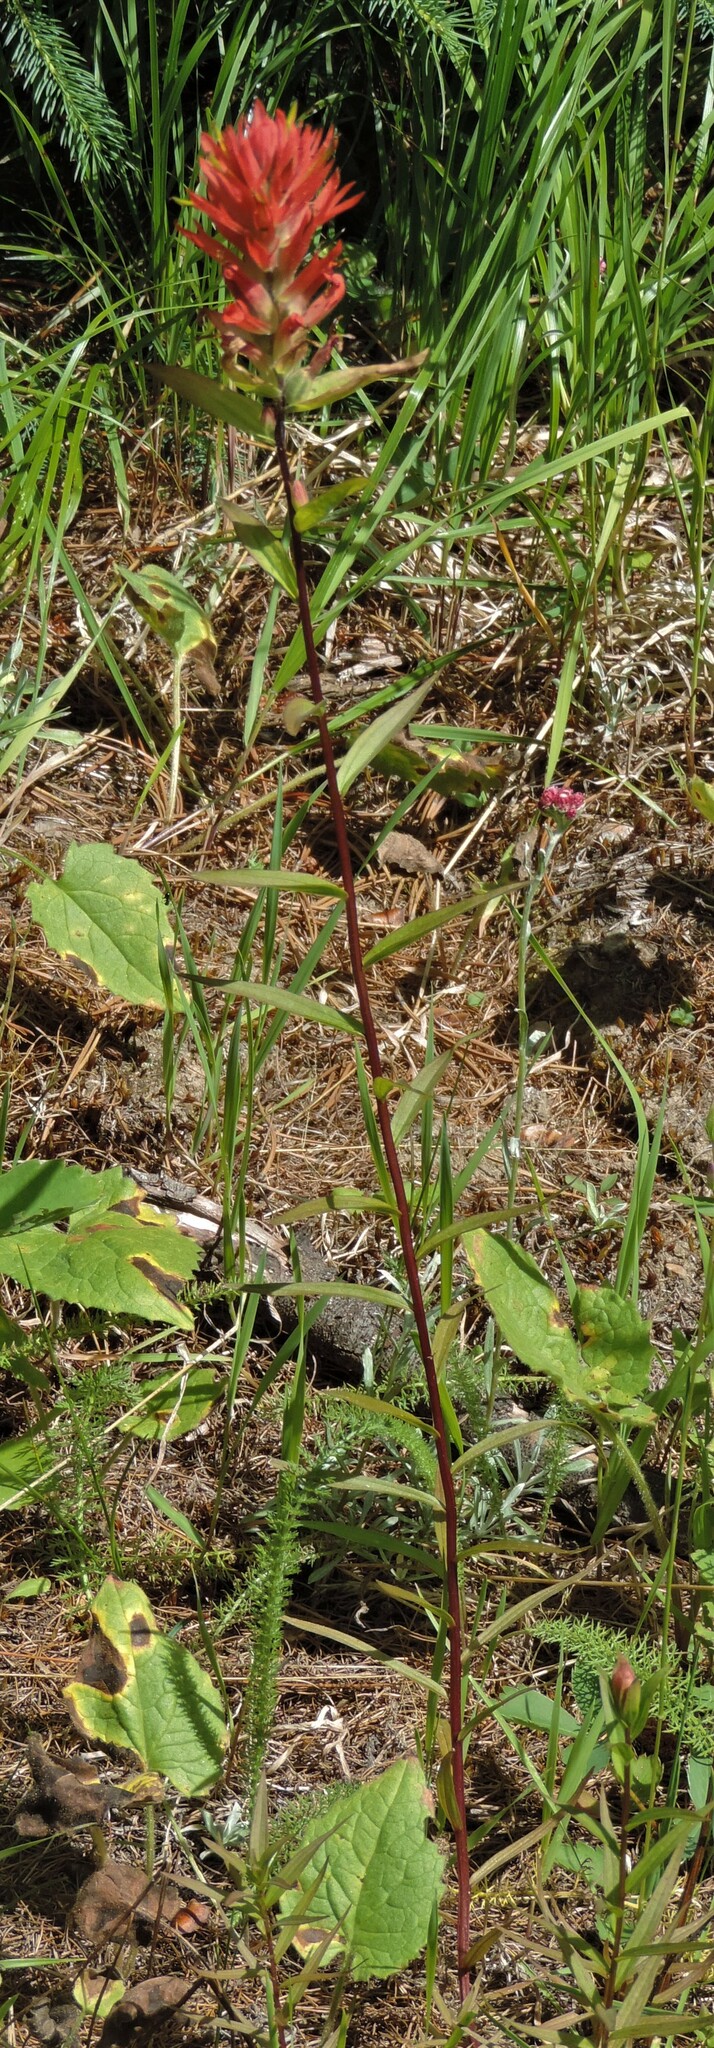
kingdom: Plantae
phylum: Tracheophyta
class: Magnoliopsida
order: Lamiales
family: Orobanchaceae
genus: Castilleja
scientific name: Castilleja miniata
